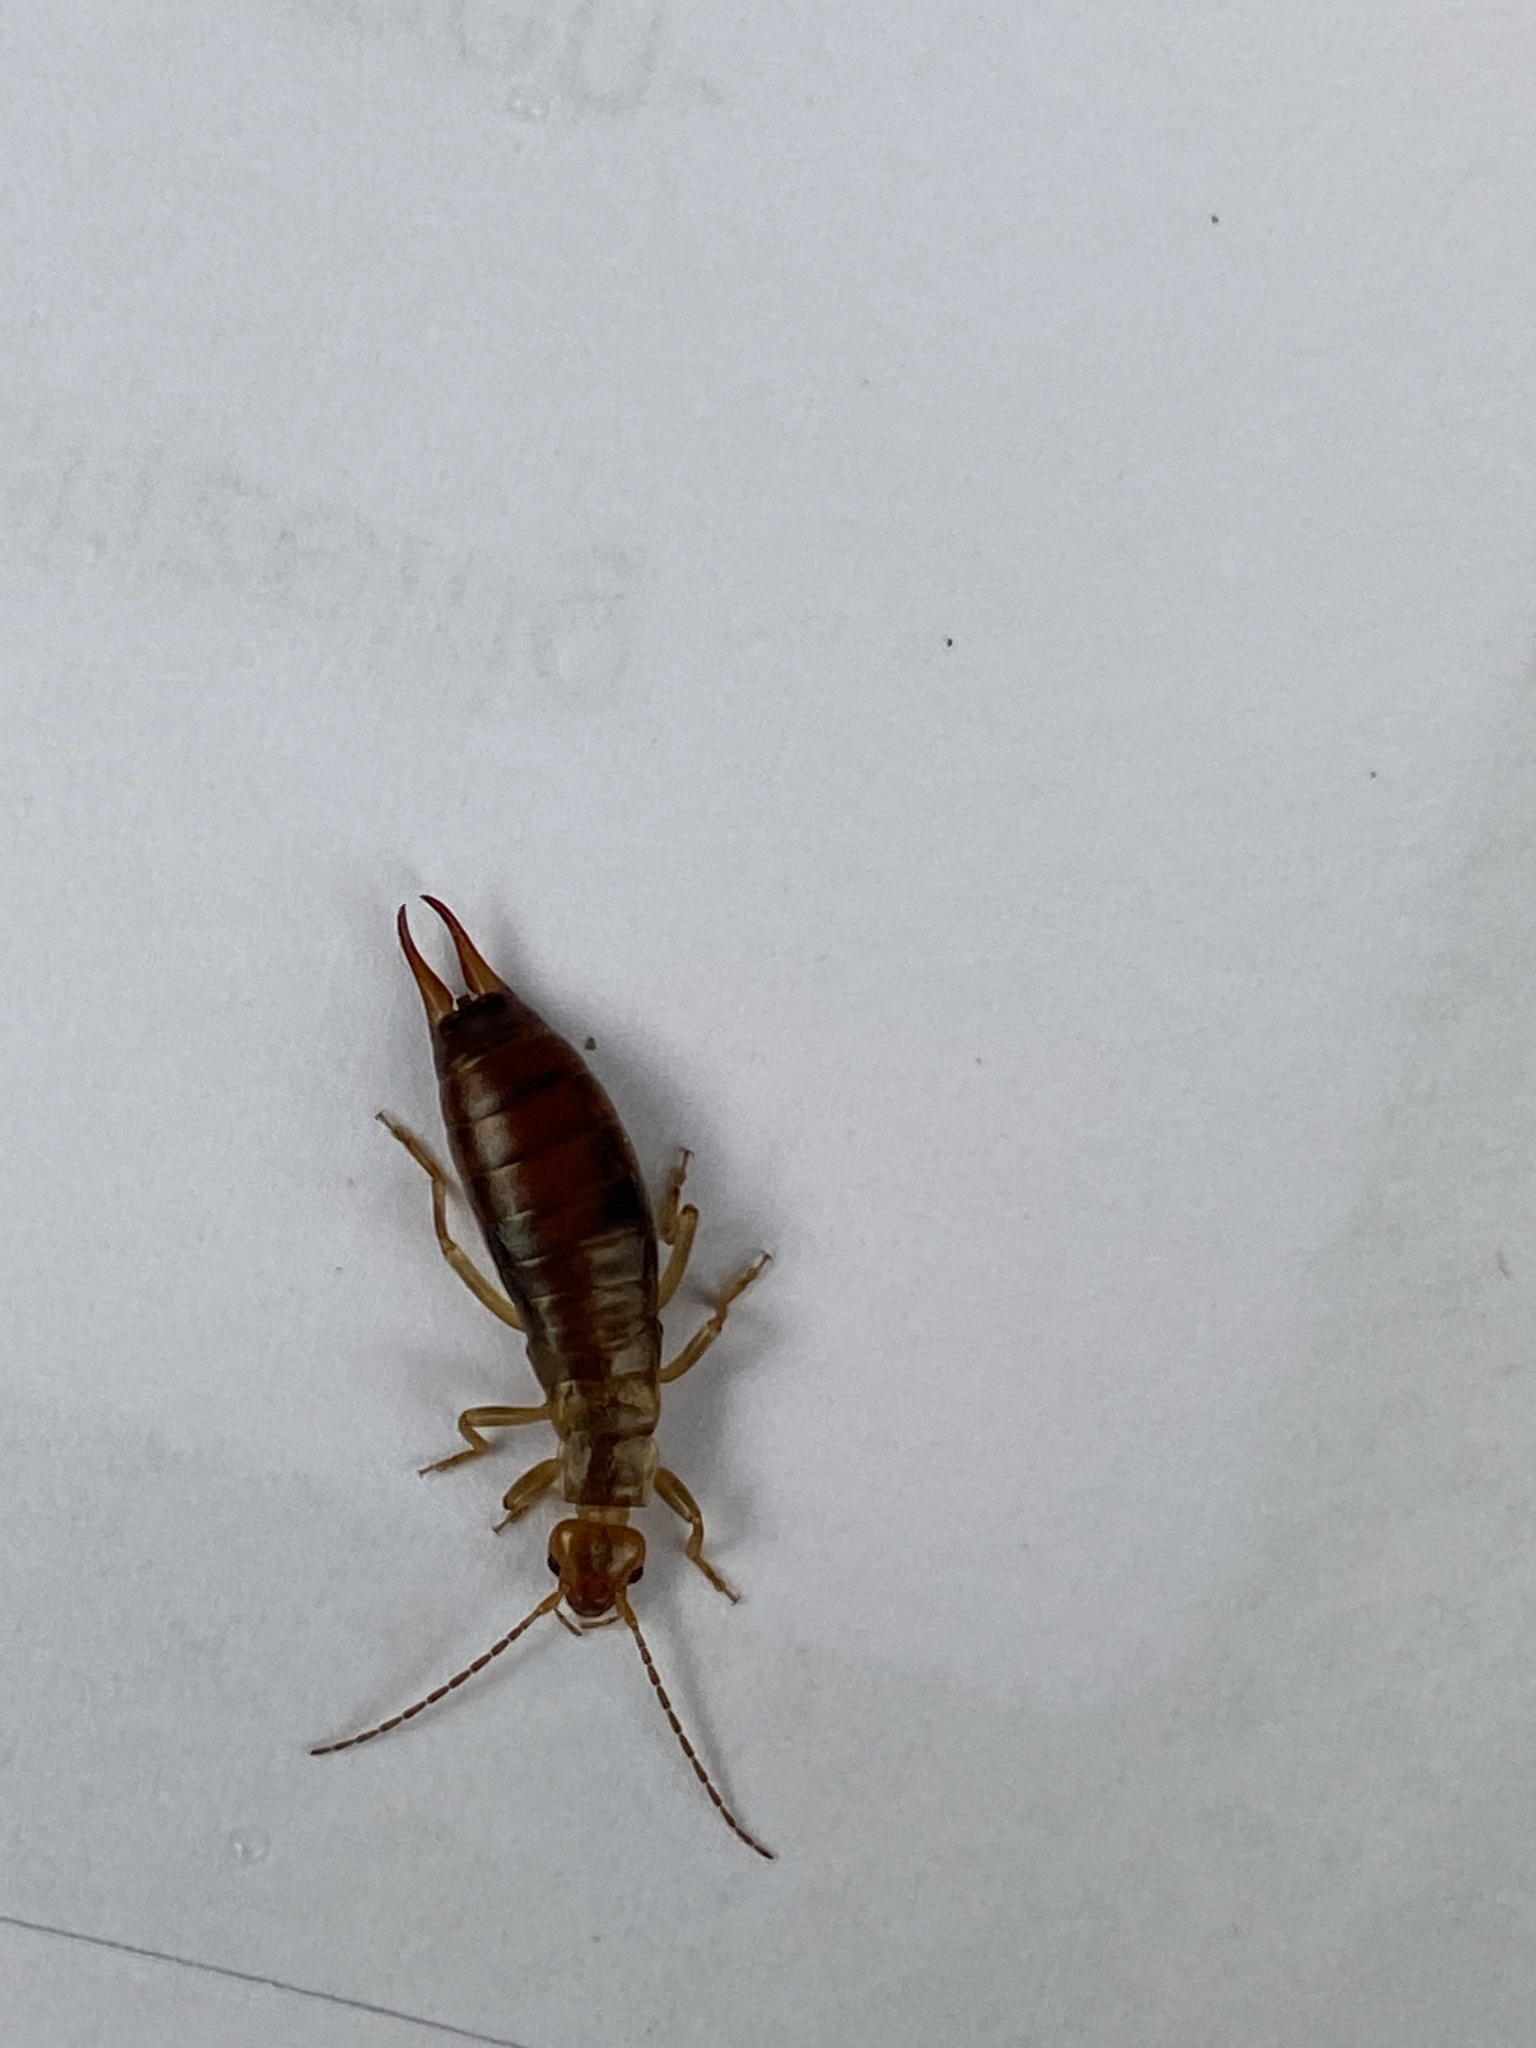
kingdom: Animalia
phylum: Arthropoda
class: Insecta
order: Dermaptera
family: Forficulidae
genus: Chelidurella
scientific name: Chelidurella acanthopygia
